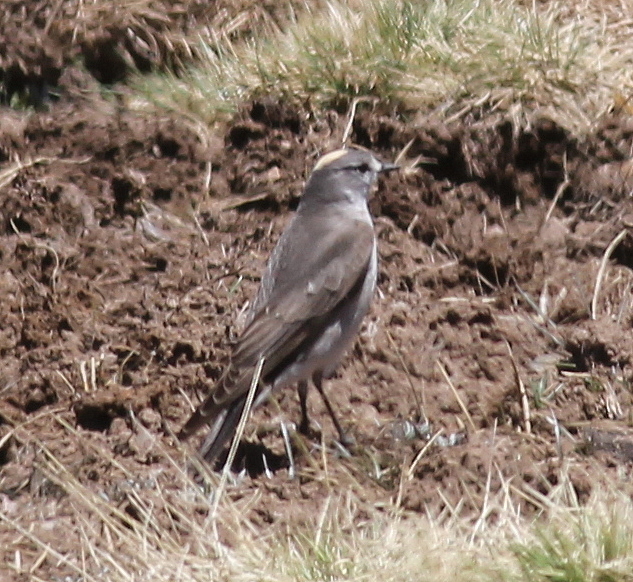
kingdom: Animalia
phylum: Chordata
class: Aves
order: Passeriformes
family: Tyrannidae
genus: Muscisaxicola
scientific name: Muscisaxicola flavinucha
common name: Ochre-naped ground tyrant
